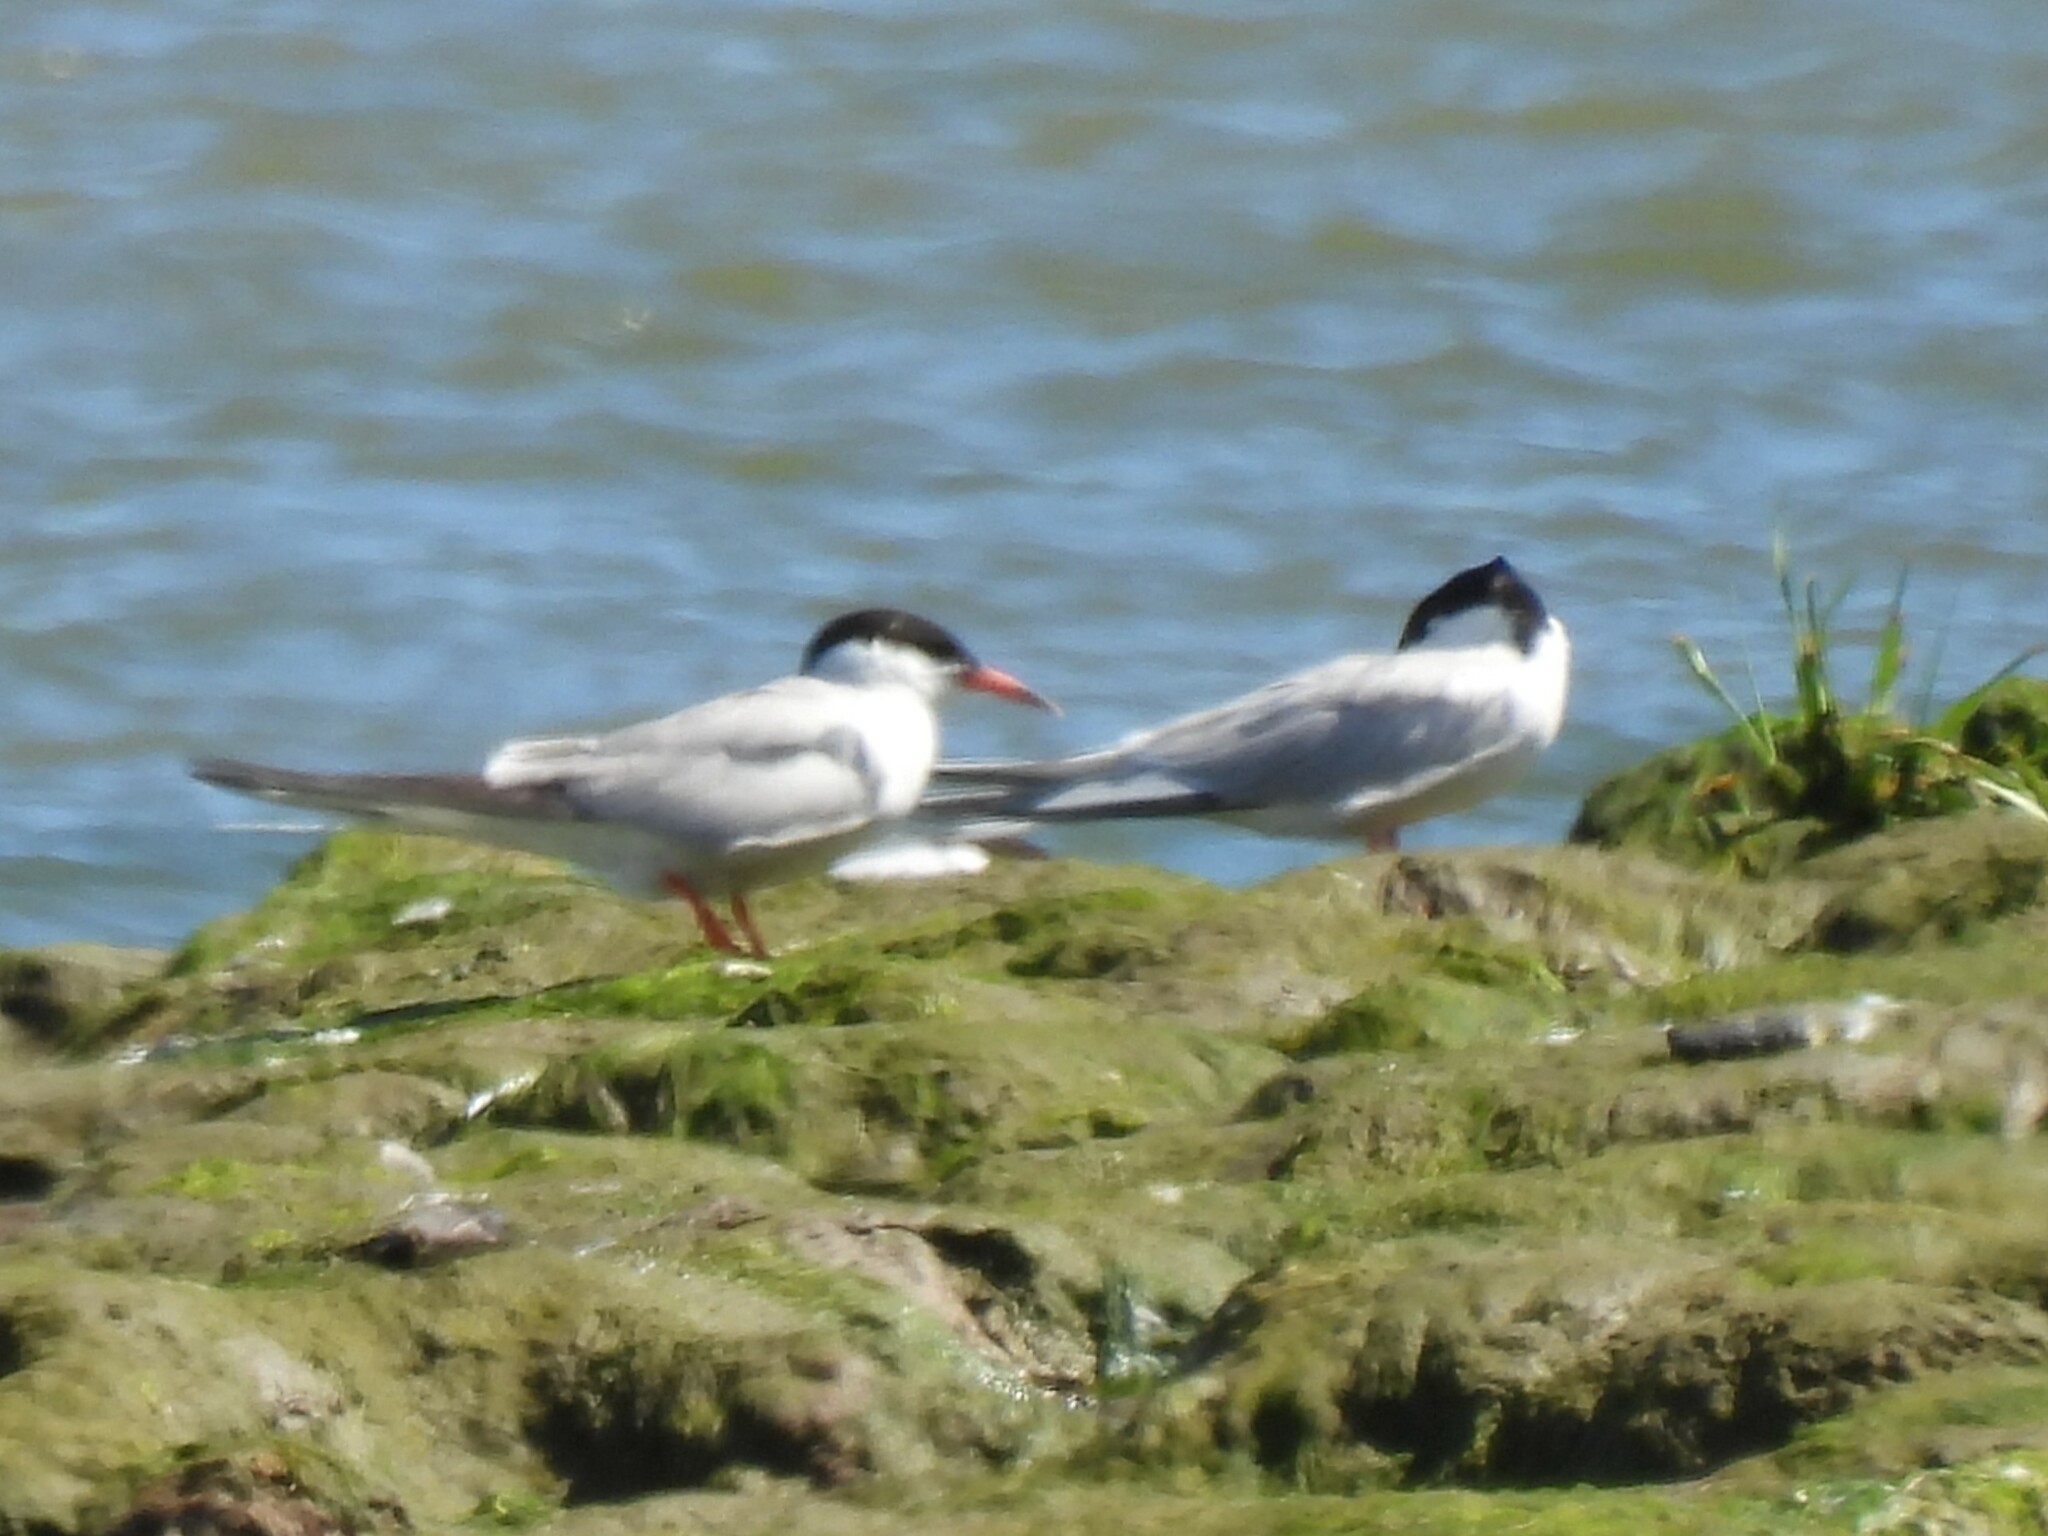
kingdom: Animalia
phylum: Chordata
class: Aves
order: Charadriiformes
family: Laridae
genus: Sterna
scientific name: Sterna hirundo
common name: Common tern
